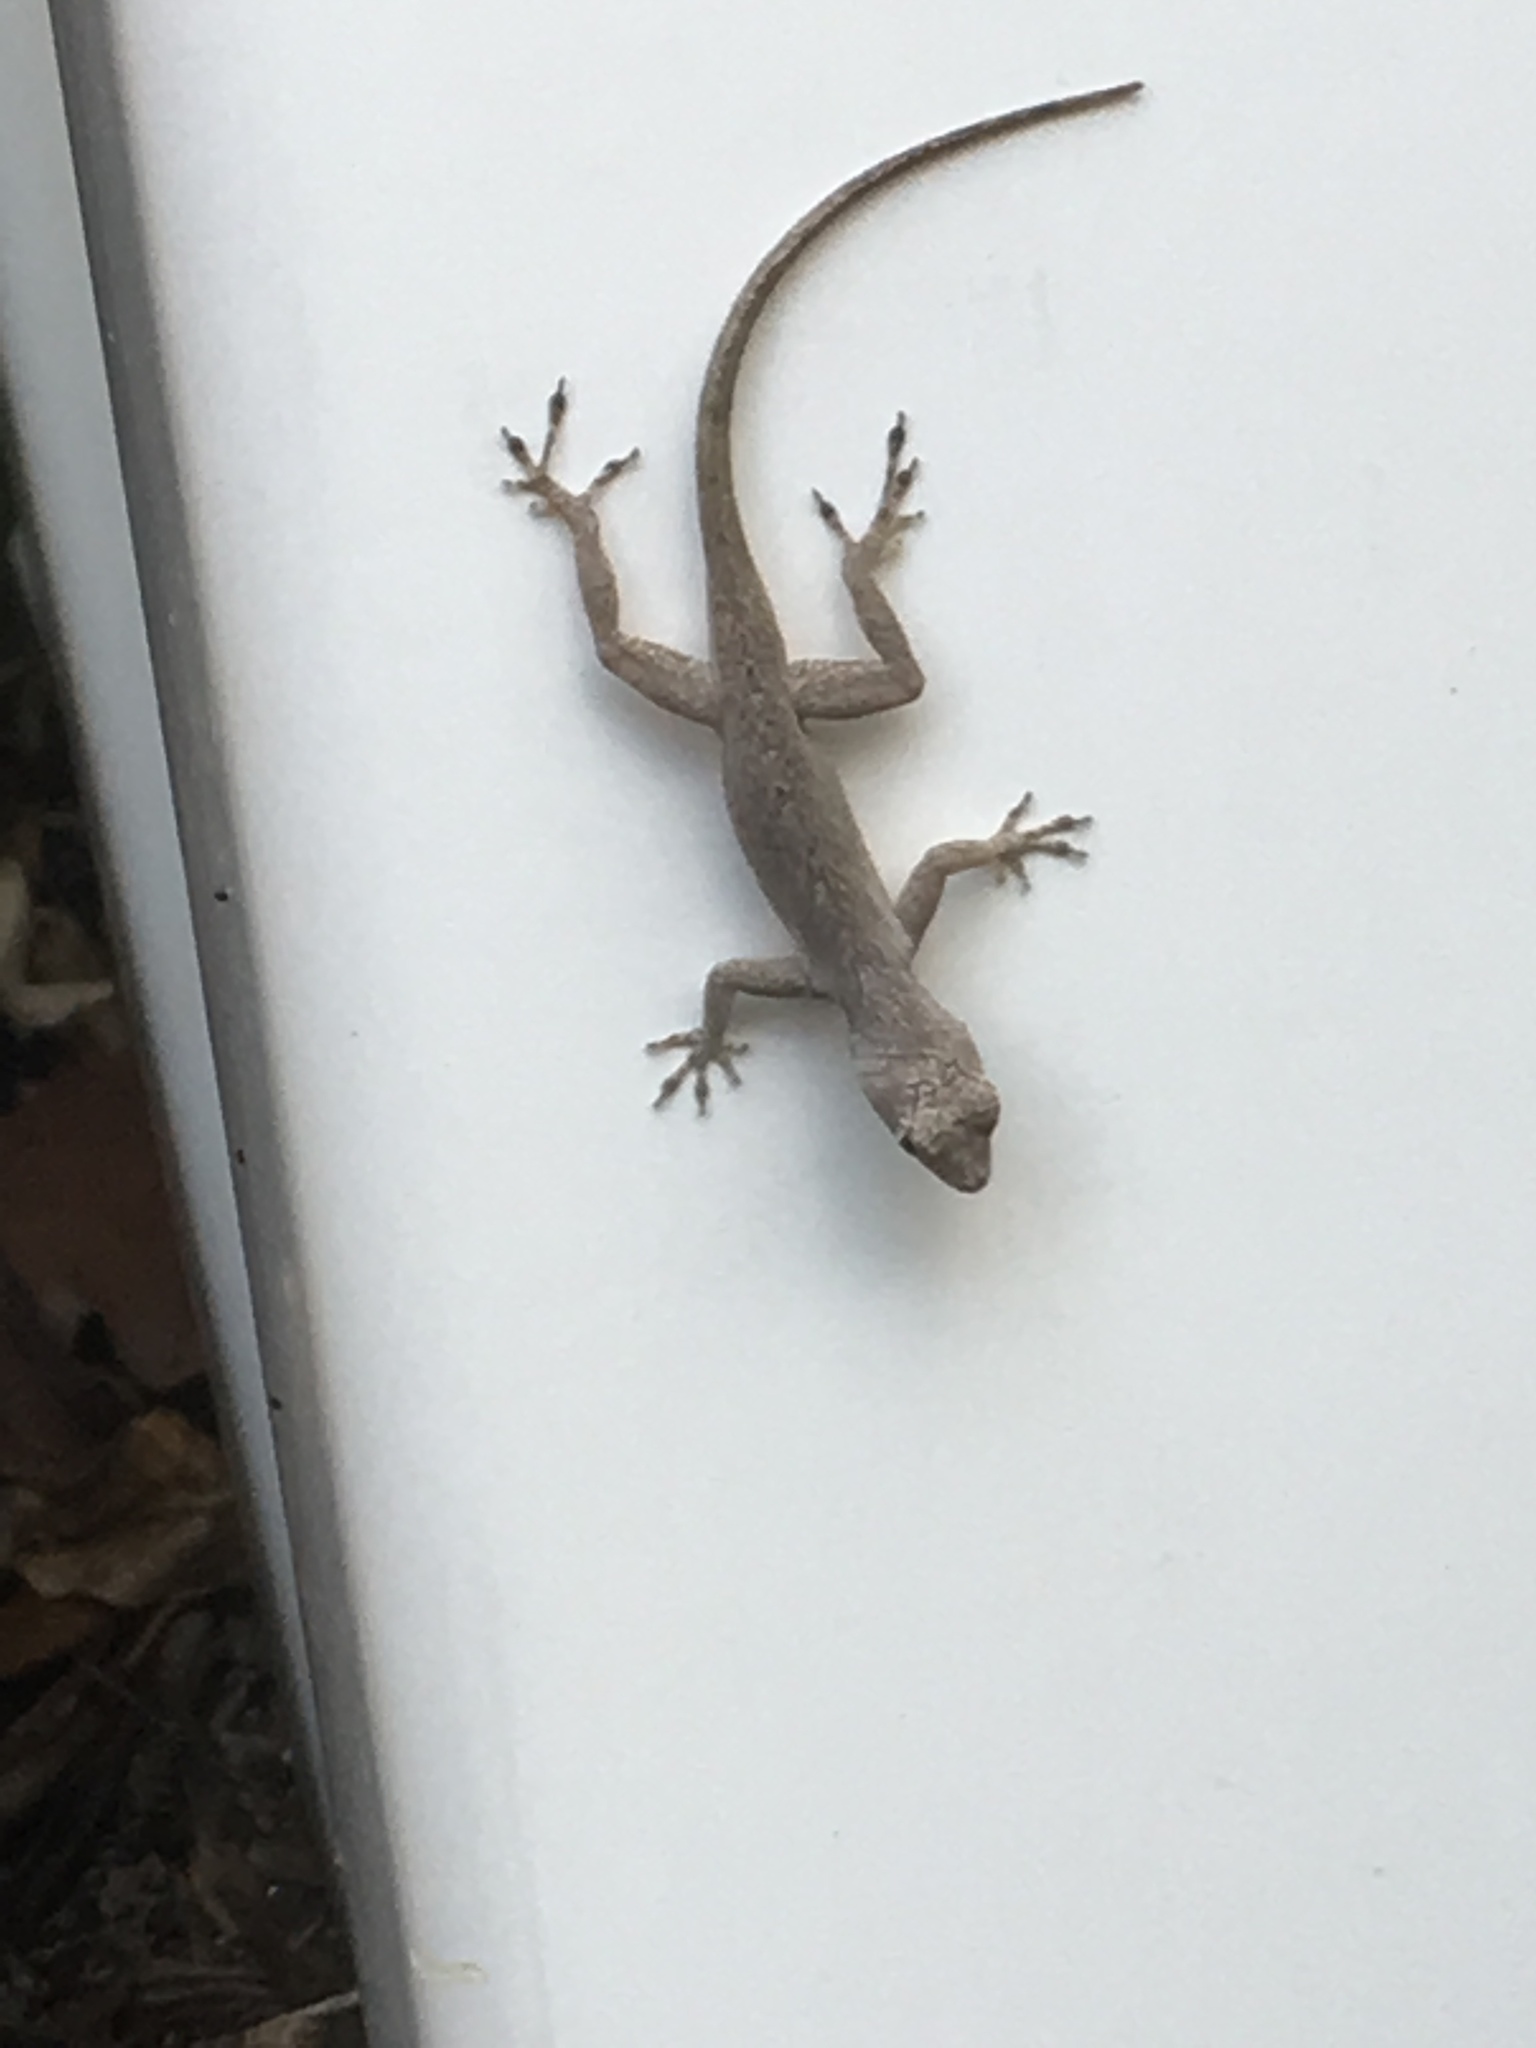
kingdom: Animalia
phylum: Chordata
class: Squamata
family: Dactyloidae
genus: Anolis
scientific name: Anolis distichus
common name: Bark anole
